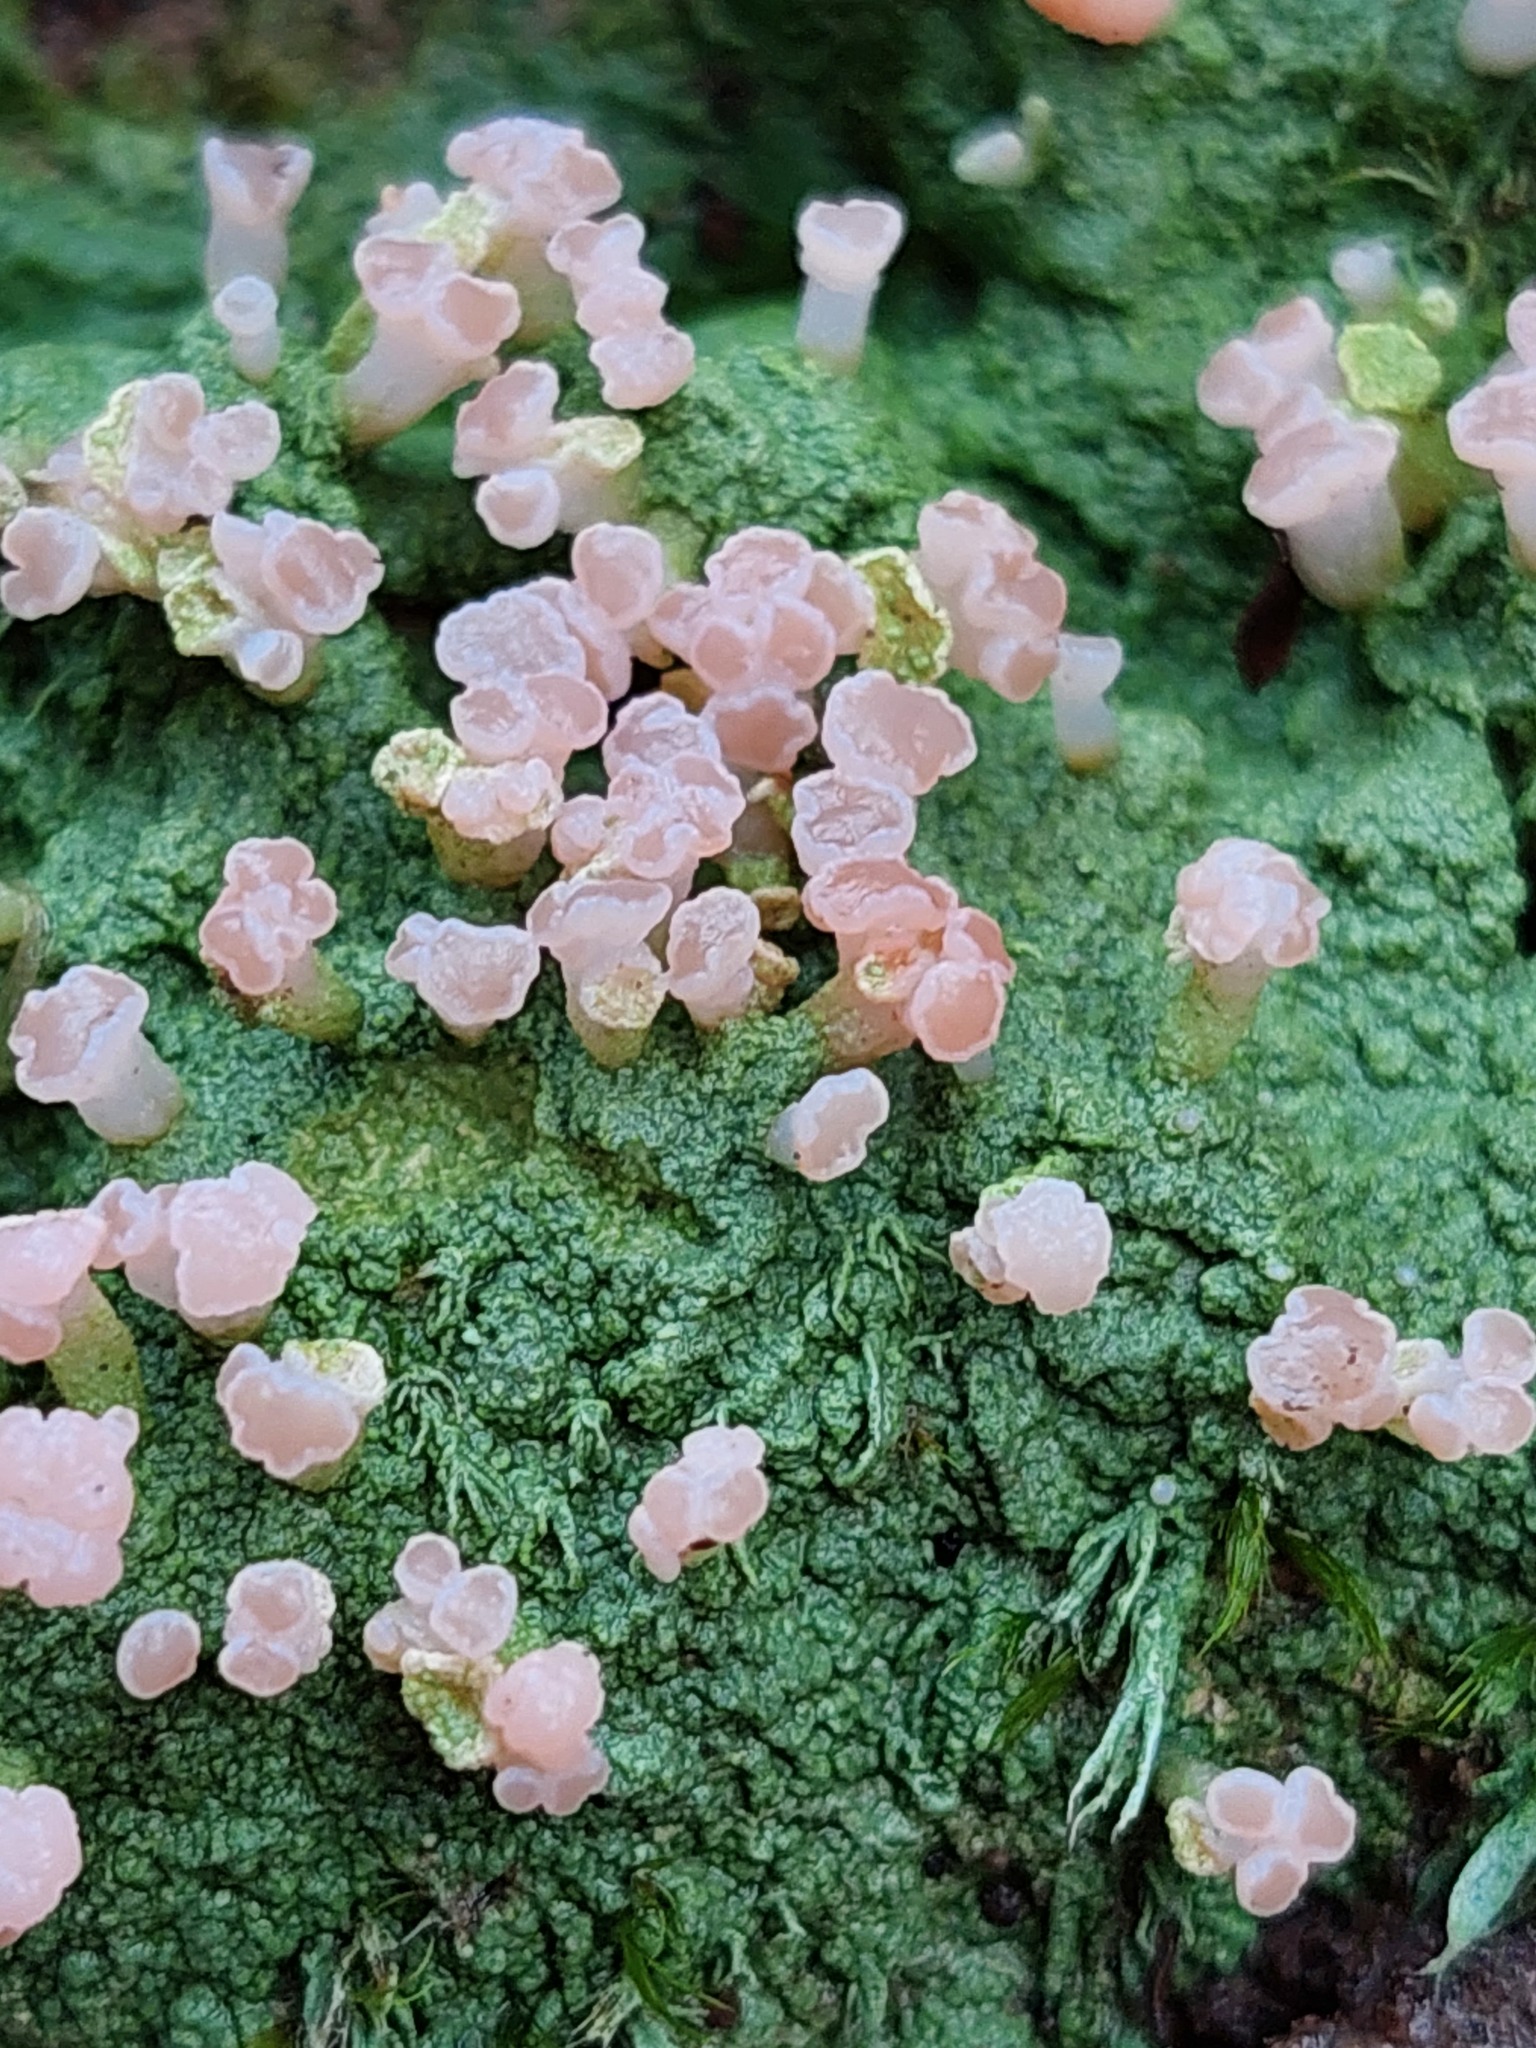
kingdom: Fungi
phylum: Ascomycota
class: Lecanoromycetes
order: Baeomycetales
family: Baeomycetaceae
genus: Baeomyces
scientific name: Baeomyces heteromorphus
